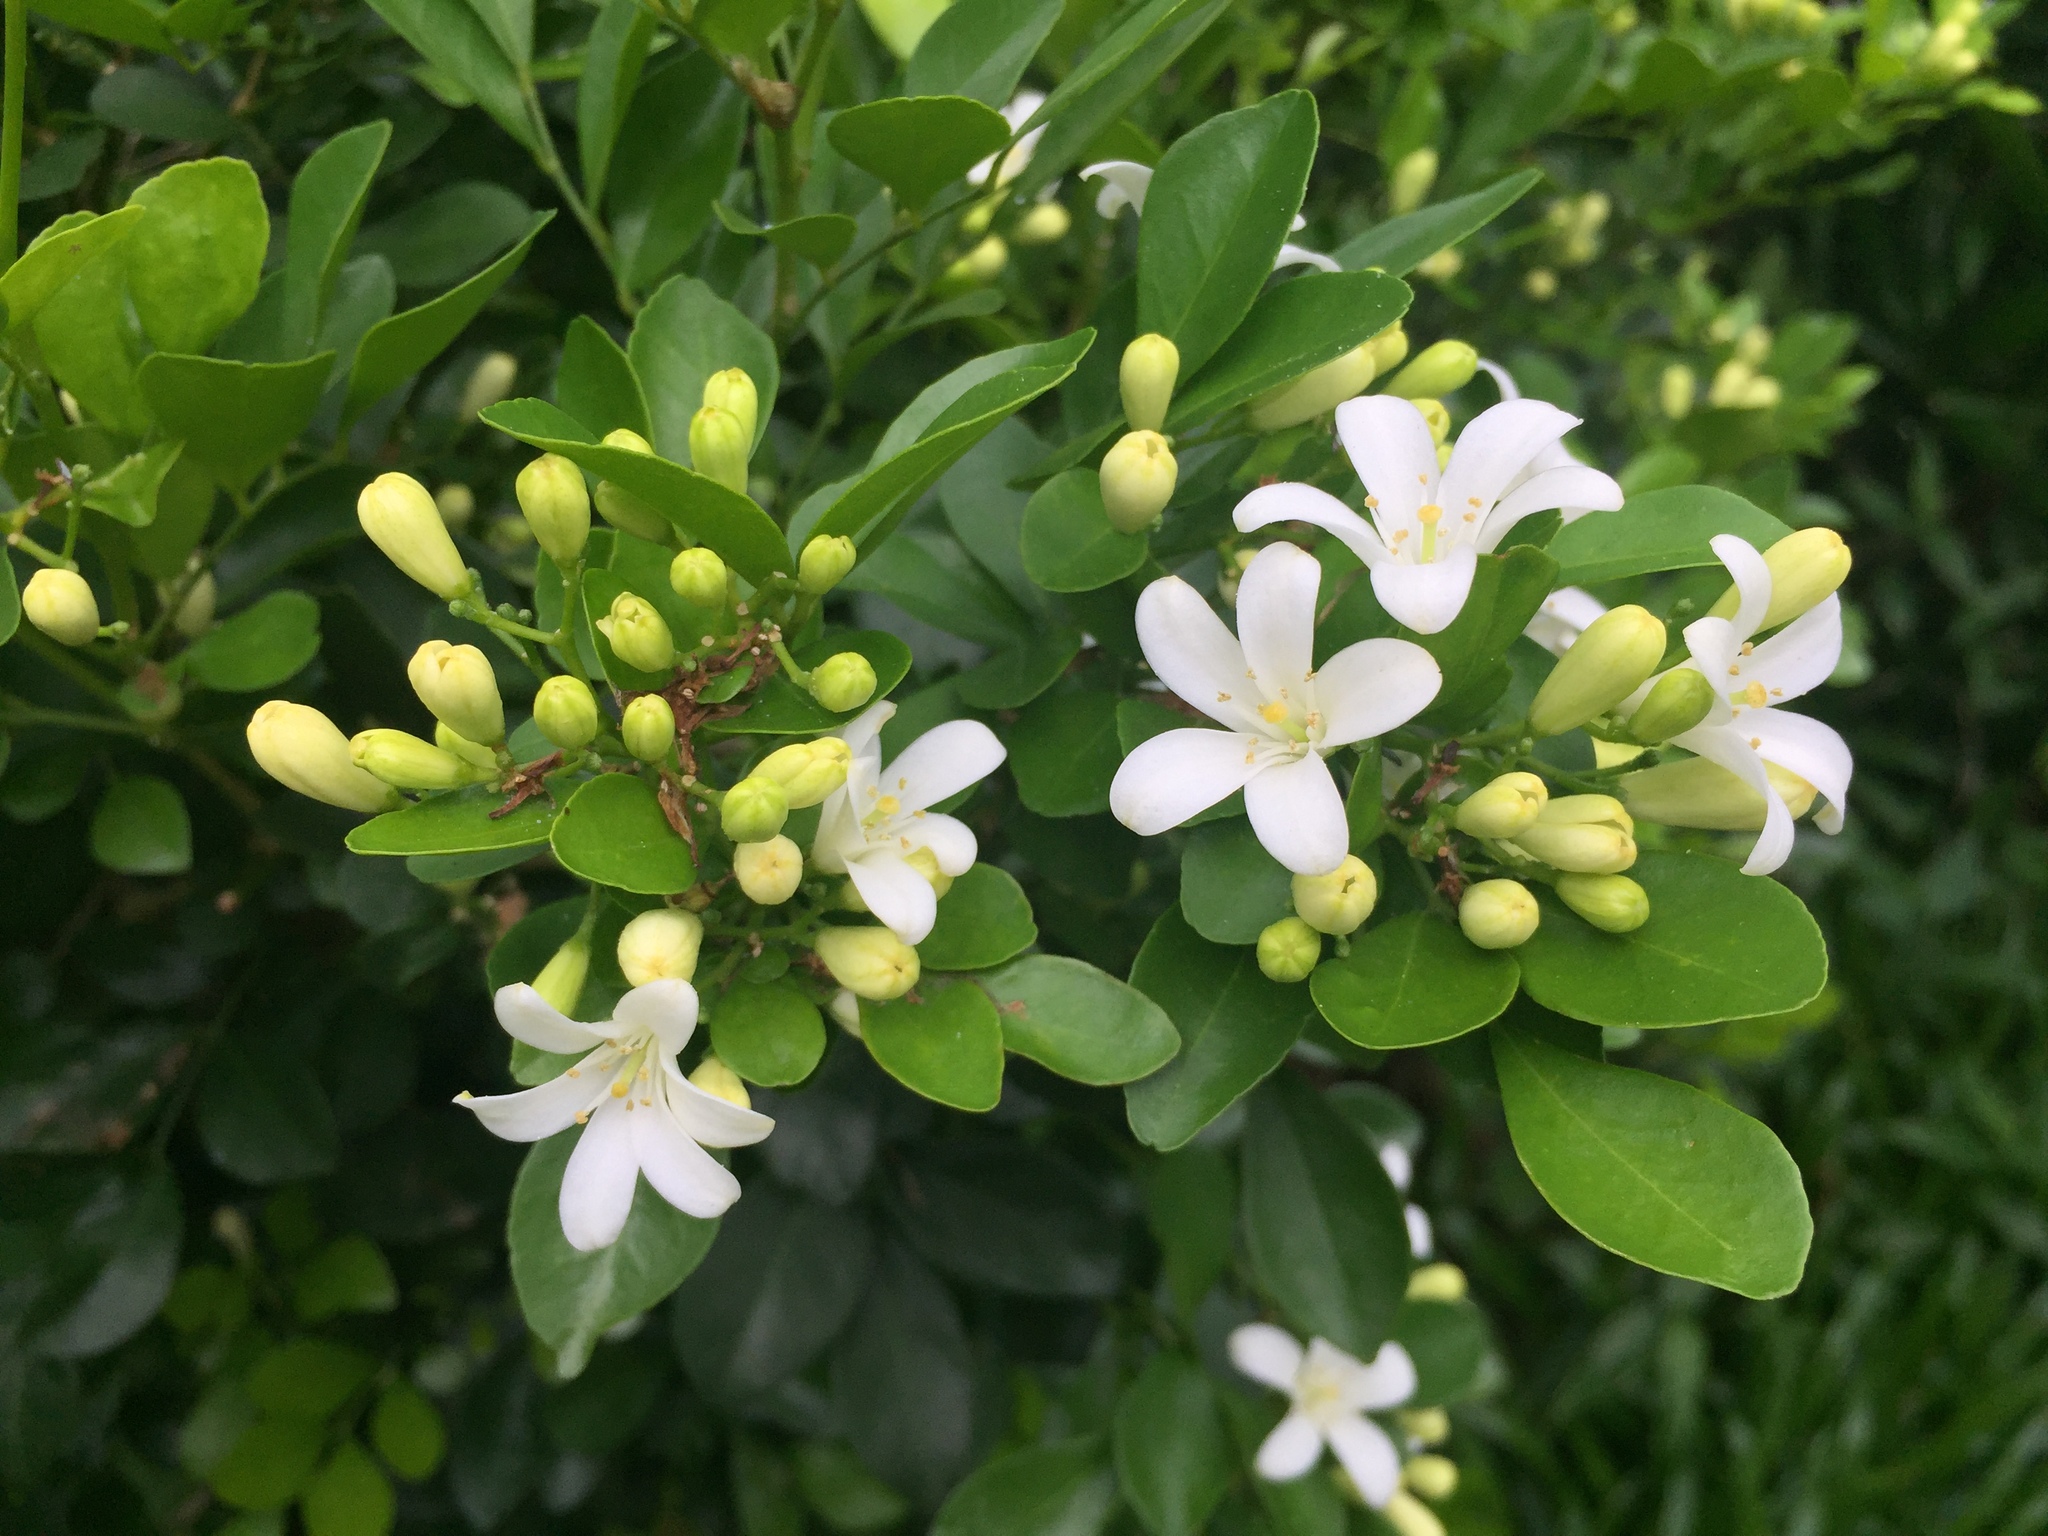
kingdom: Plantae
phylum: Tracheophyta
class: Magnoliopsida
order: Sapindales
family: Rutaceae
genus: Murraya
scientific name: Murraya paniculata
